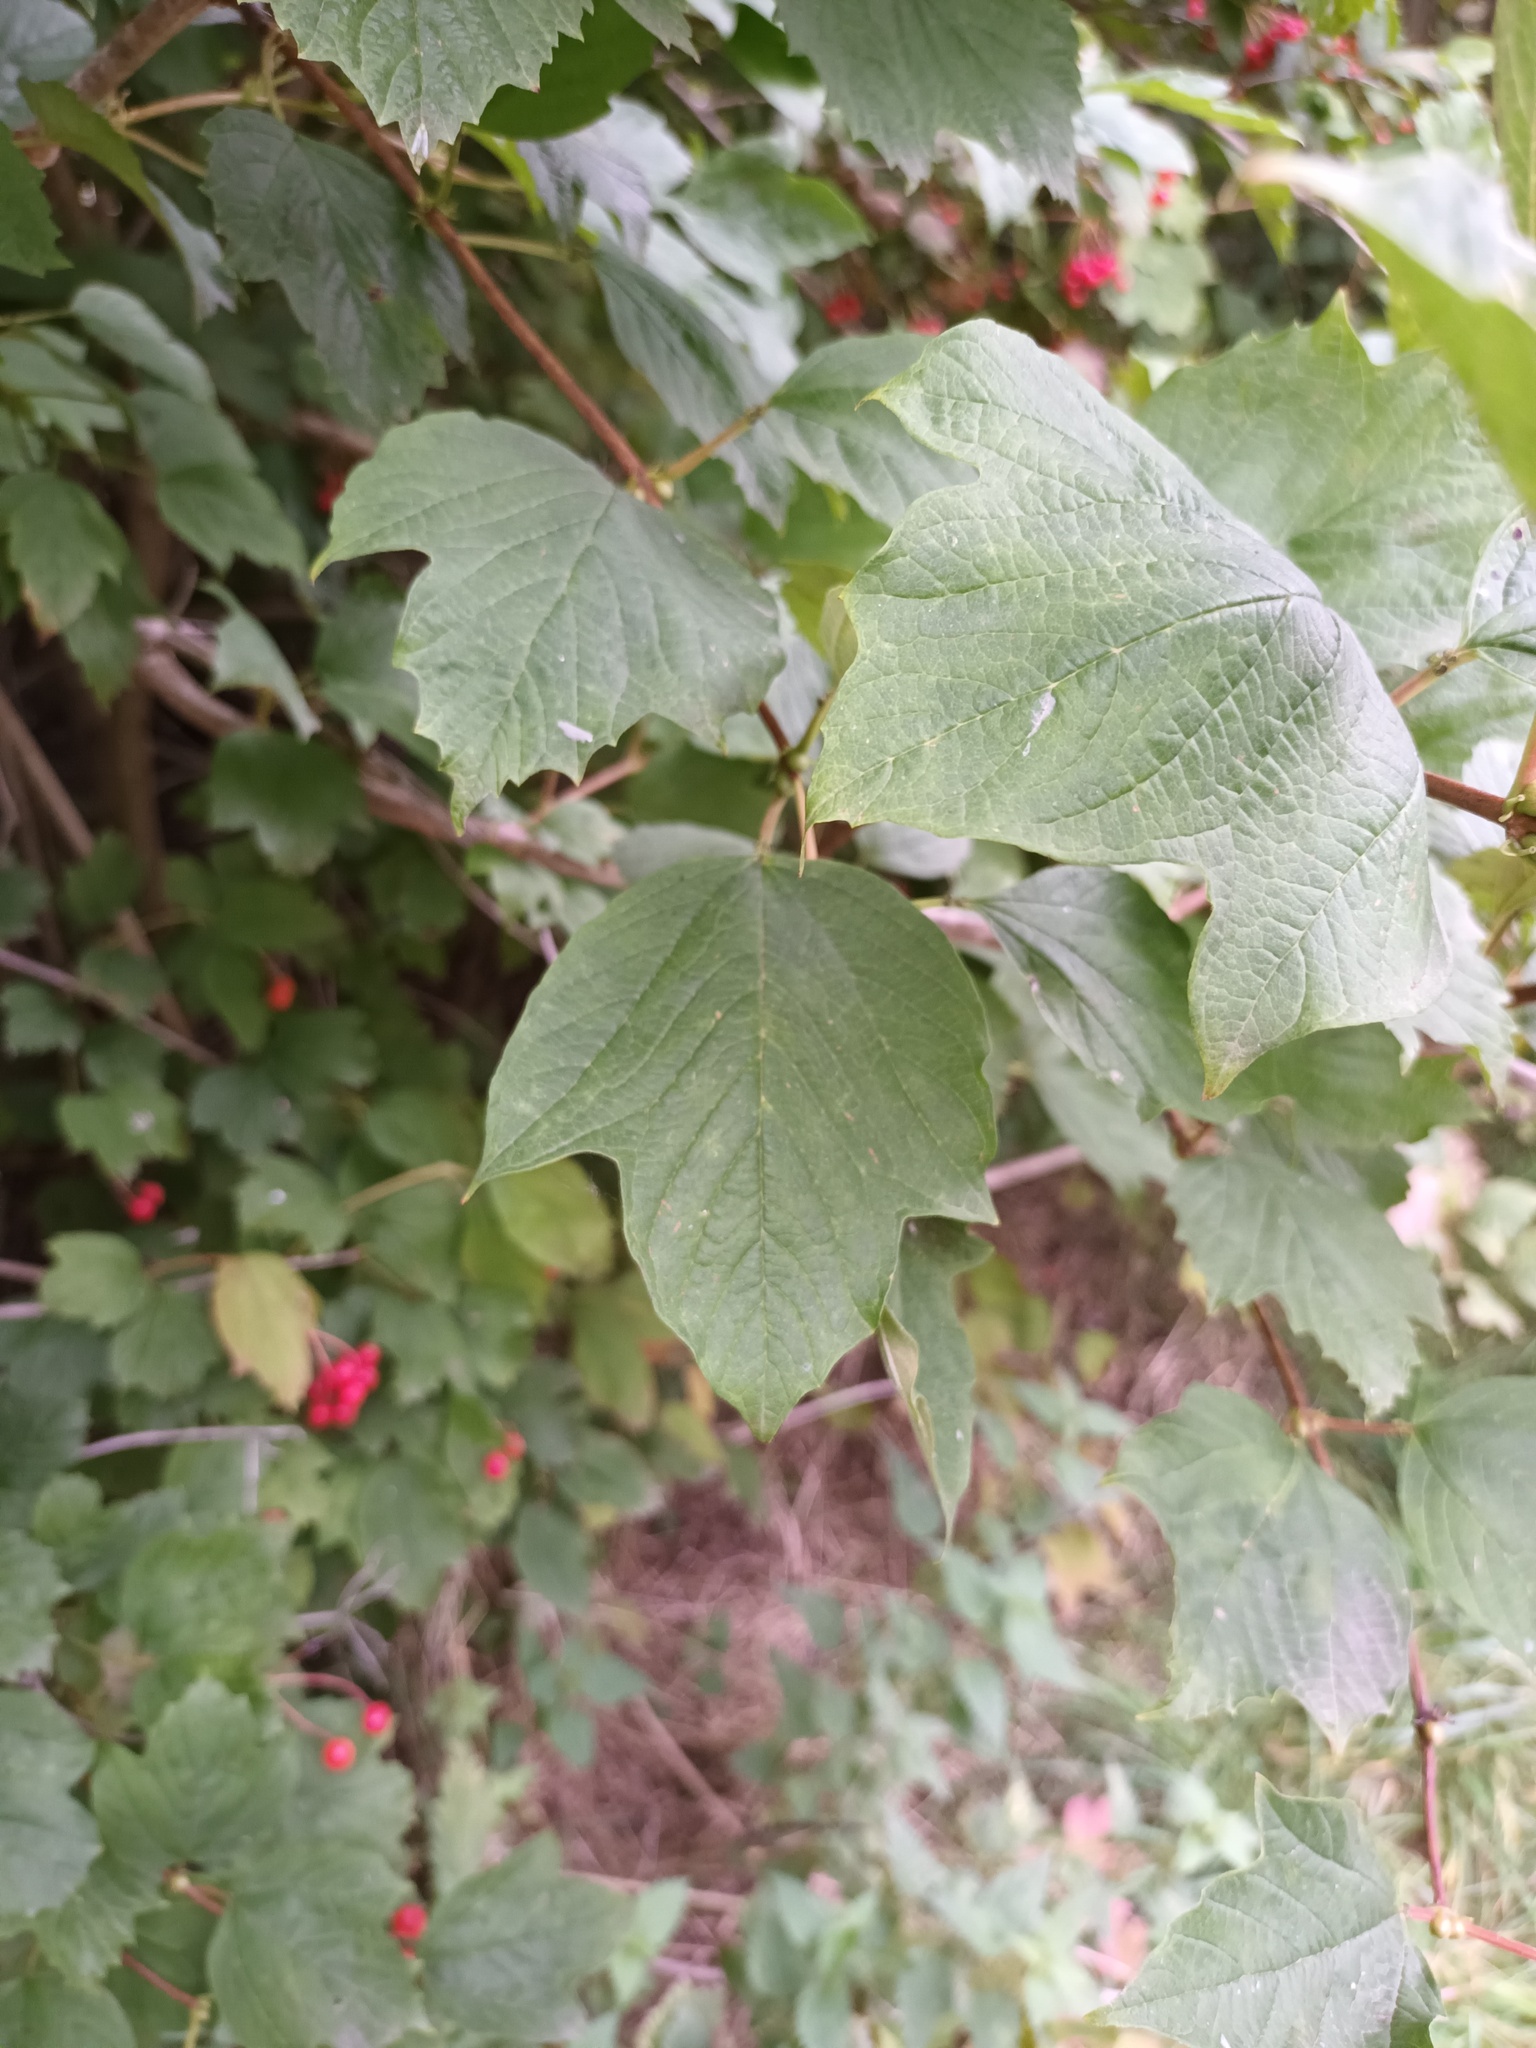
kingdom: Plantae
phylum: Tracheophyta
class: Magnoliopsida
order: Dipsacales
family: Viburnaceae
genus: Viburnum
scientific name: Viburnum opulus
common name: Guelder-rose
